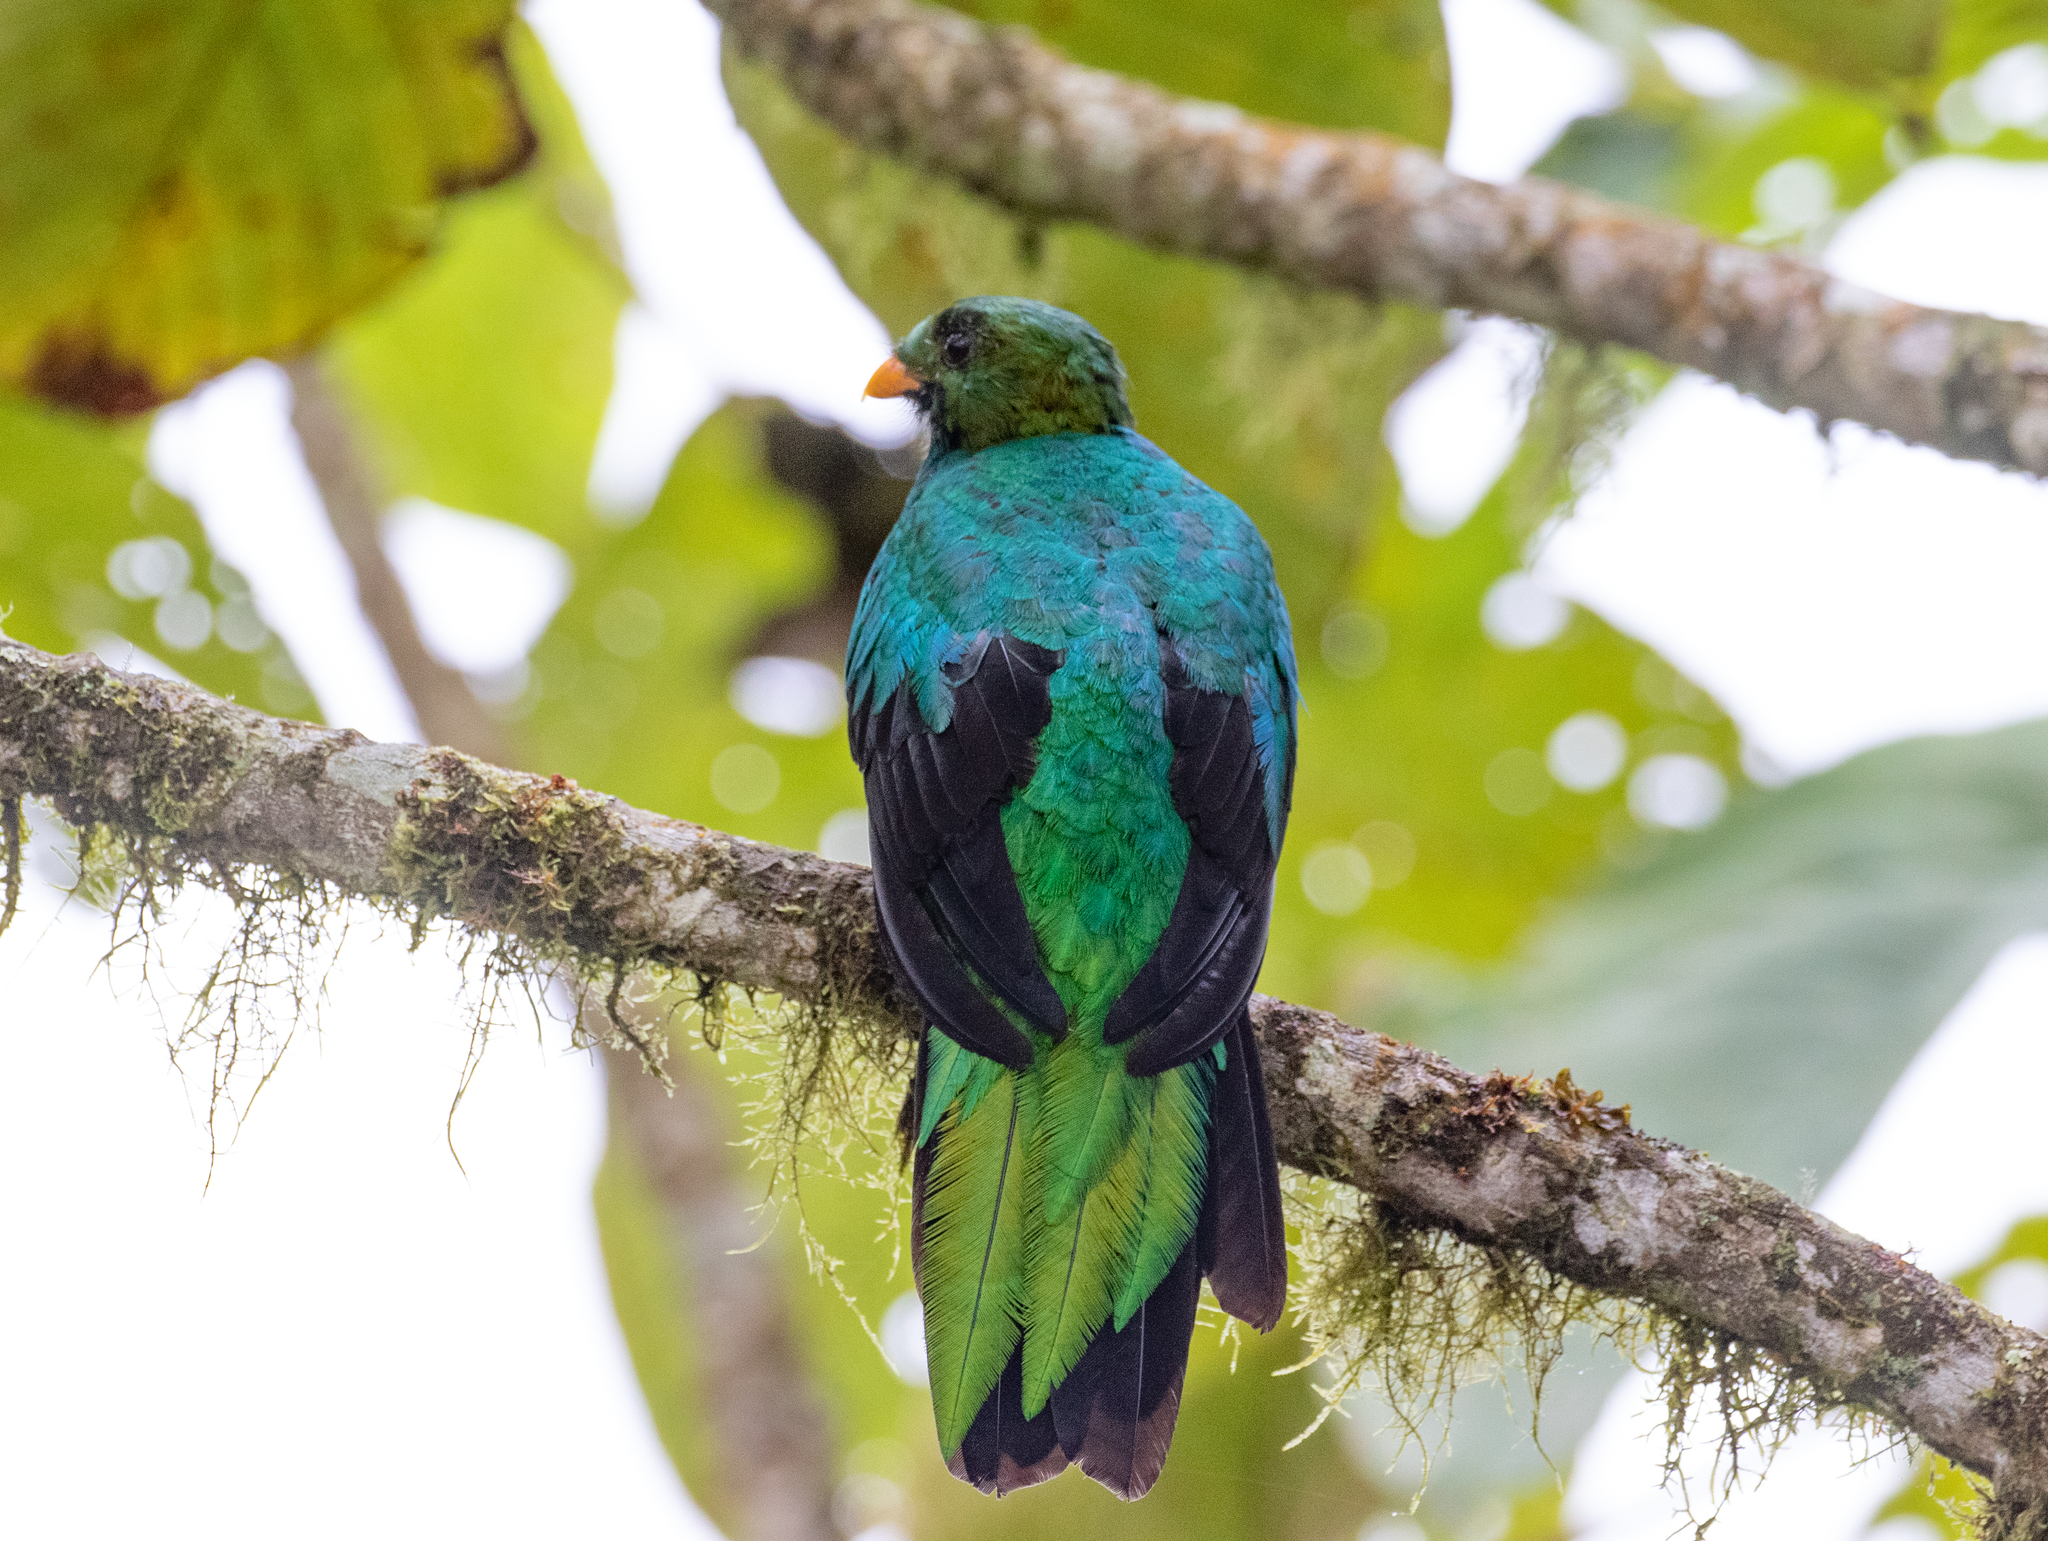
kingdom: Animalia
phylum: Chordata
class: Aves
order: Trogoniformes
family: Trogonidae
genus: Pharomachrus
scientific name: Pharomachrus auriceps
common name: Golden-headed quetzal
